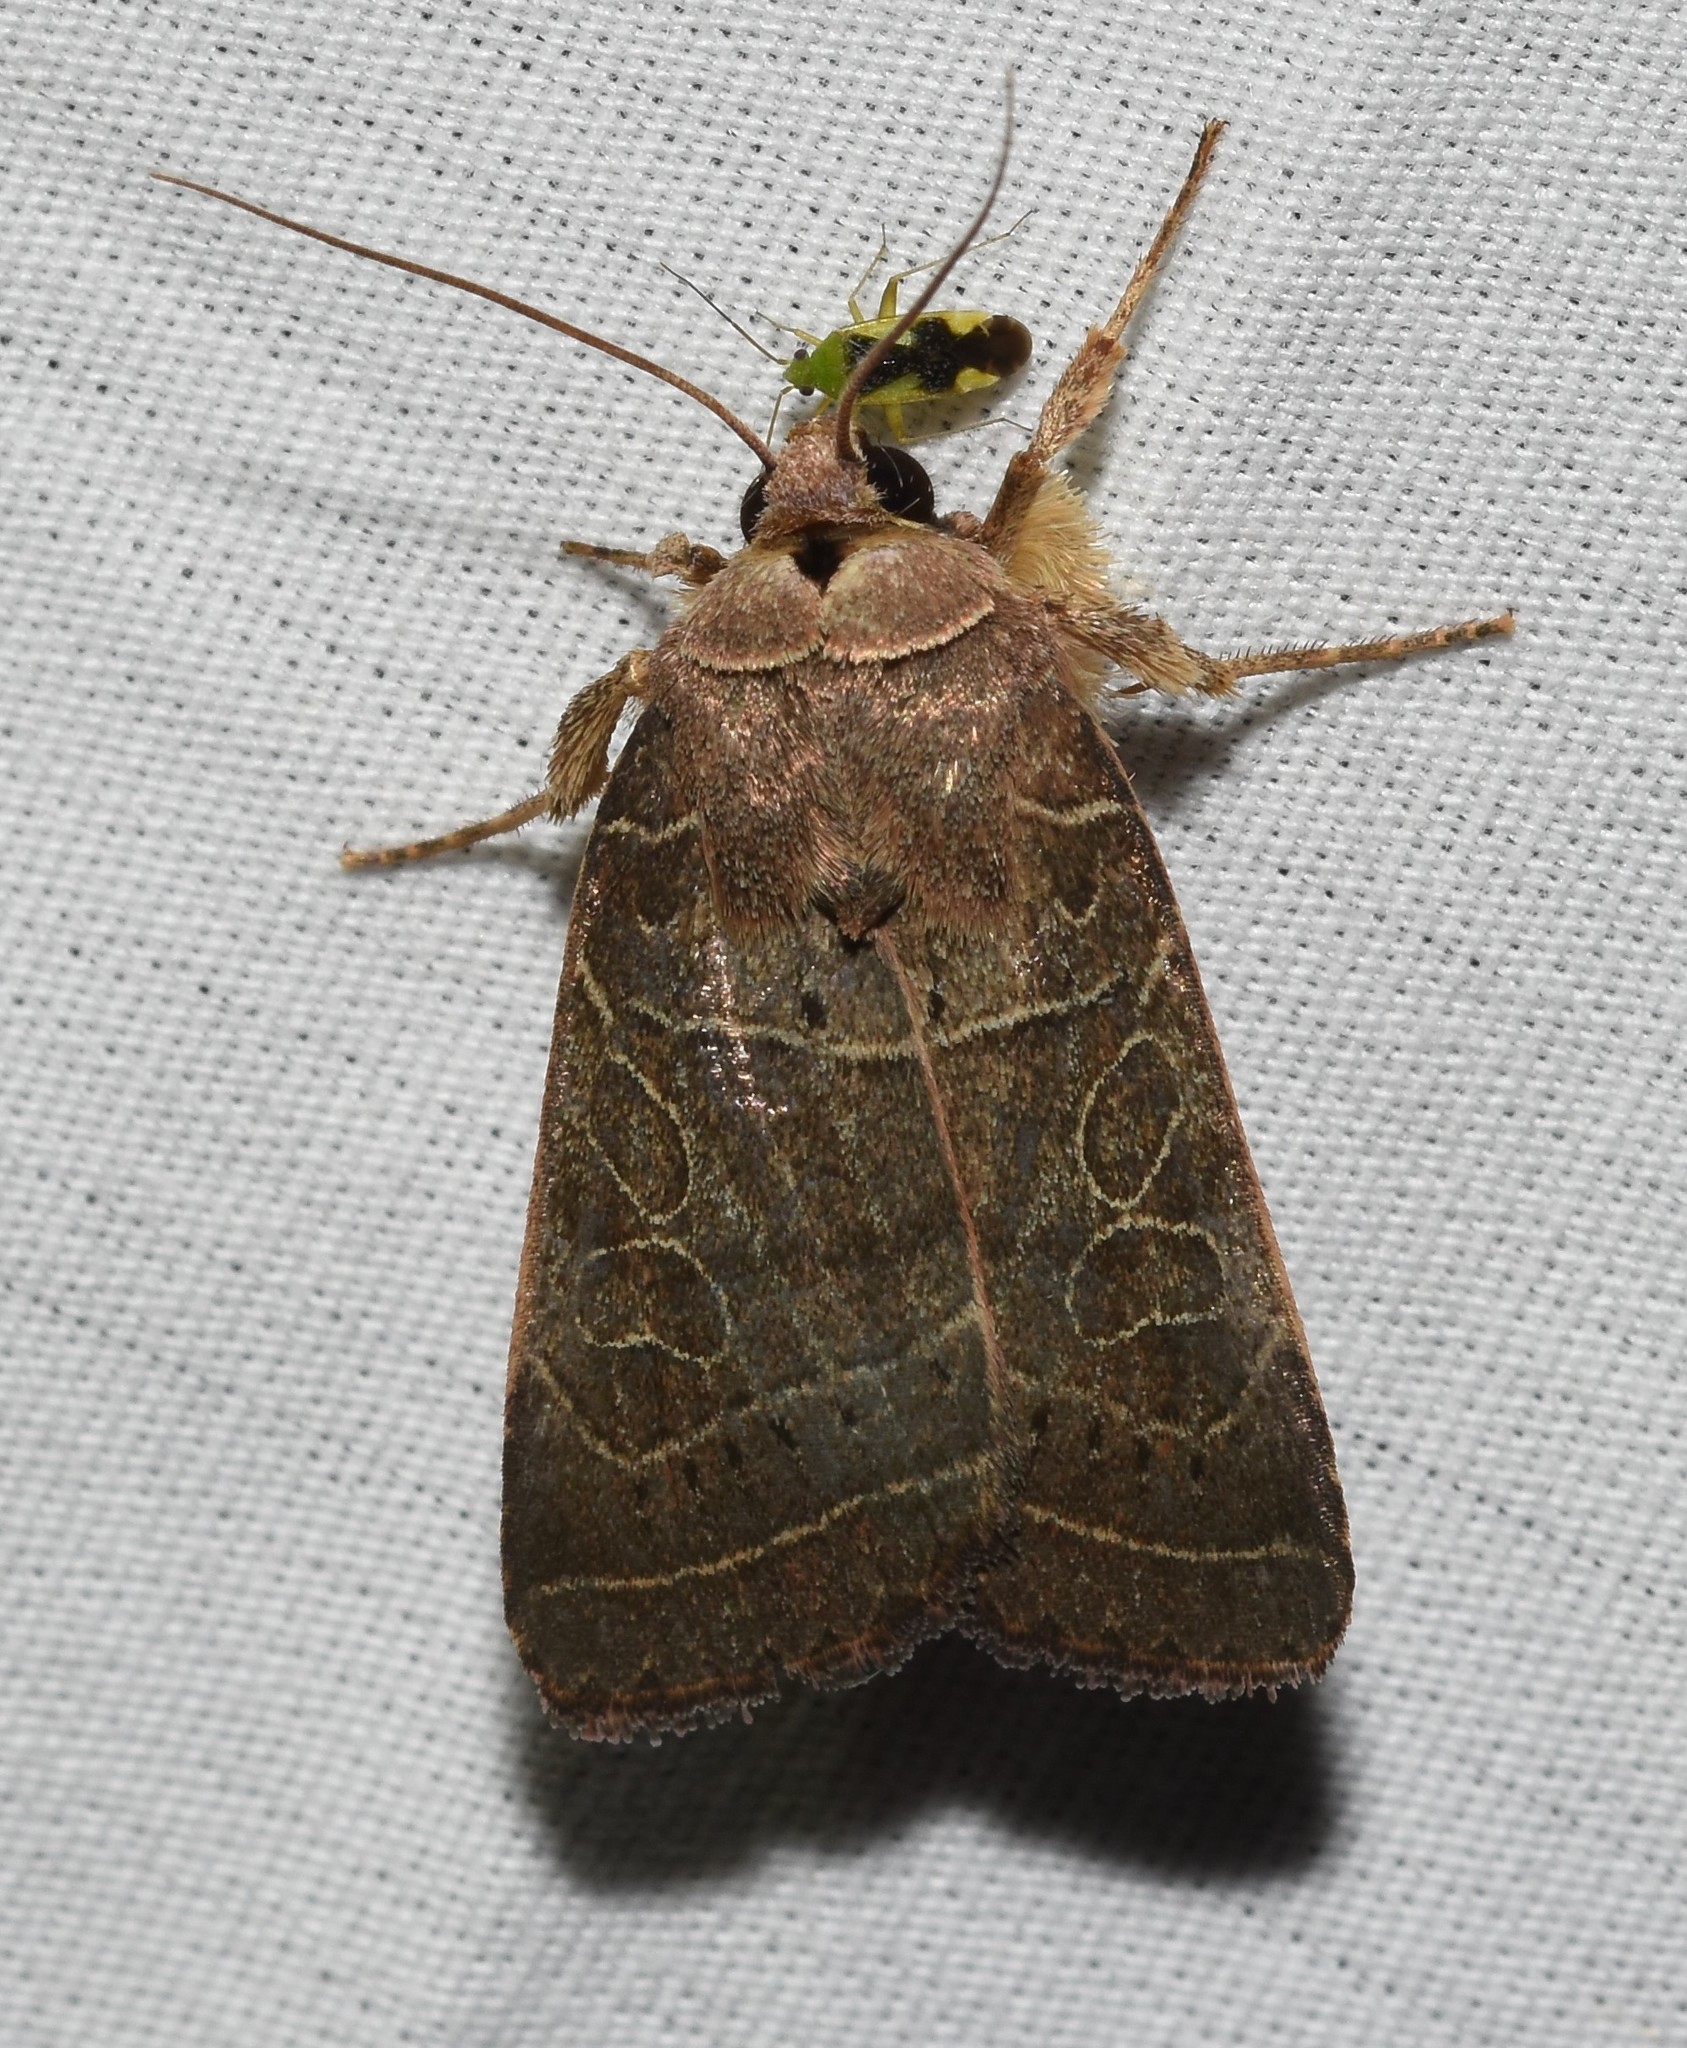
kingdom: Animalia
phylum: Arthropoda
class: Insecta
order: Lepidoptera
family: Noctuidae
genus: Orthodes
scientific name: Orthodes majuscula
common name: Rustic quaker
